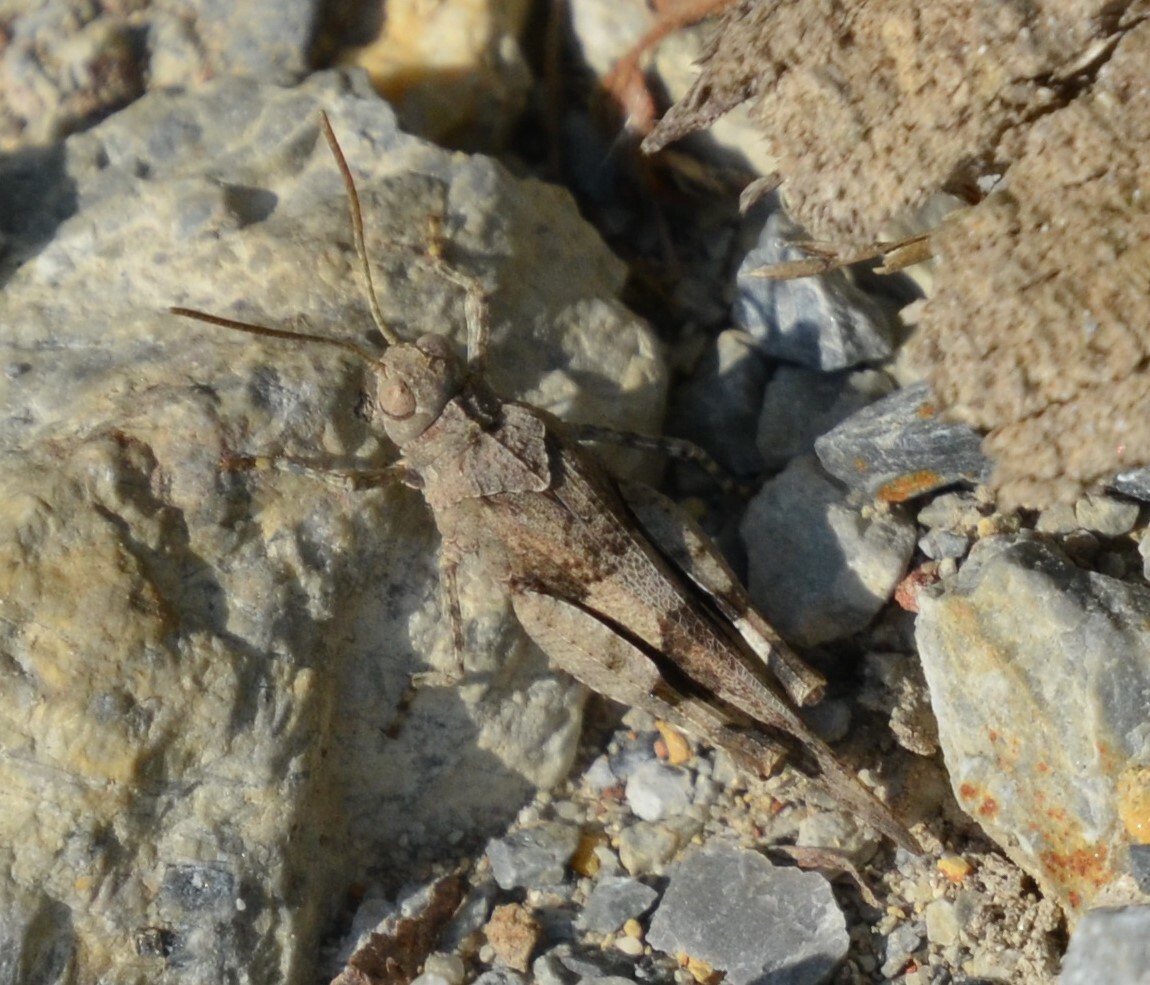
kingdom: Animalia
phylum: Arthropoda
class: Insecta
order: Orthoptera
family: Acrididae
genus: Oedipoda
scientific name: Oedipoda caerulescens
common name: Blue-winged grasshopper
